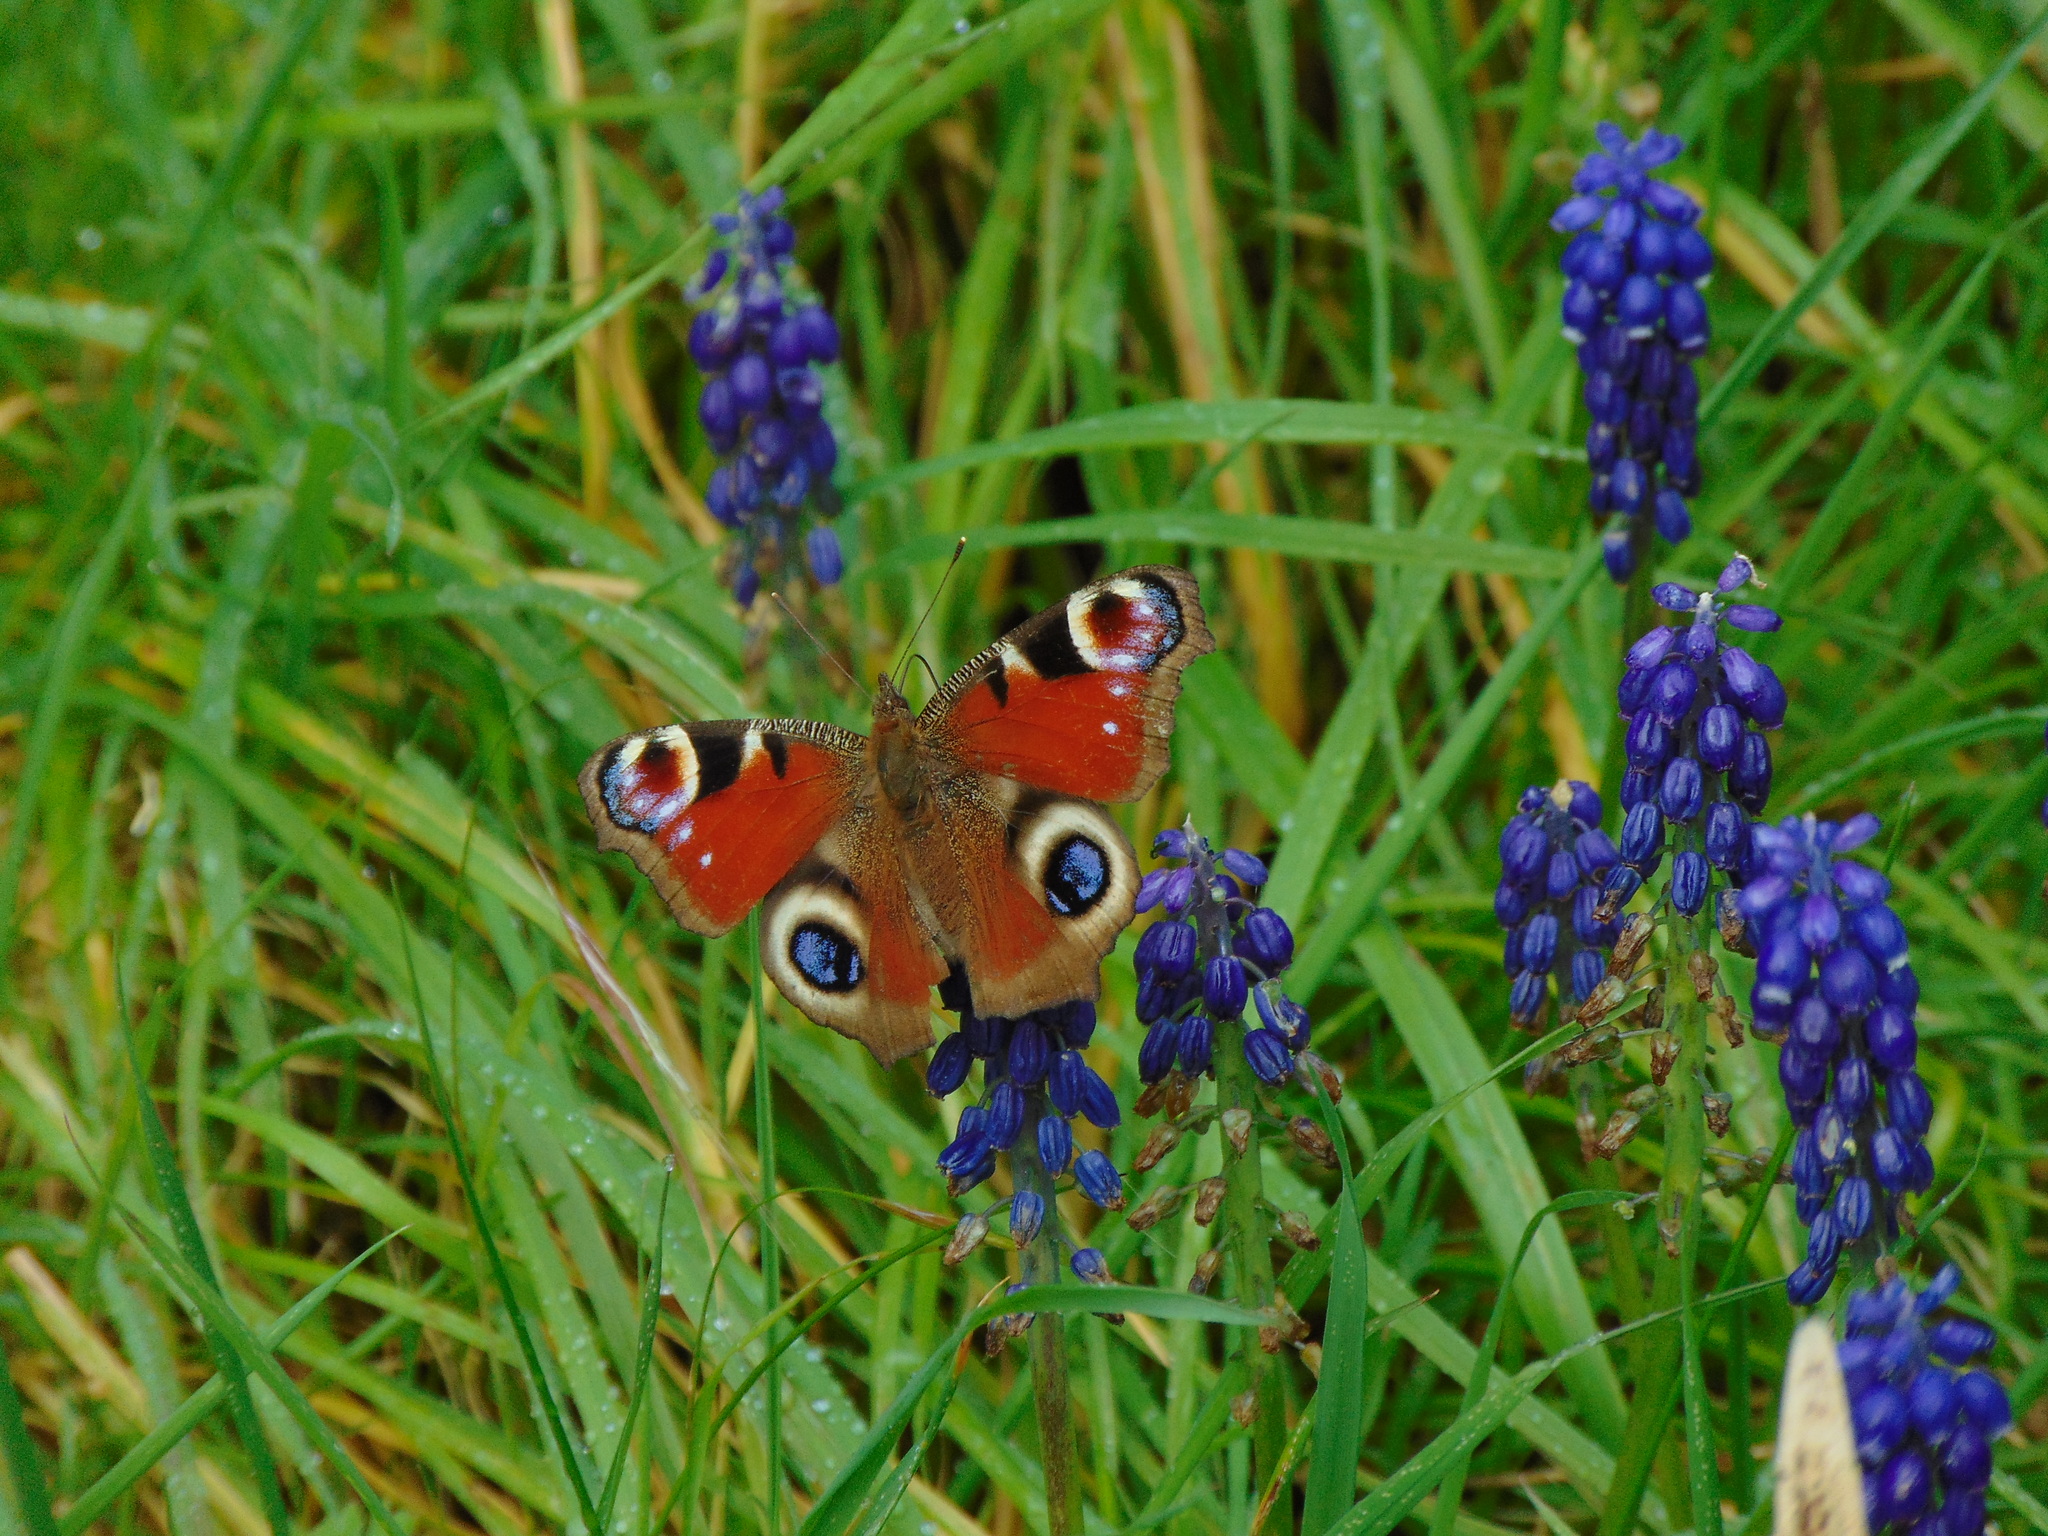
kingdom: Animalia
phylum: Arthropoda
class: Insecta
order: Lepidoptera
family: Nymphalidae
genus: Aglais
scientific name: Aglais io
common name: Peacock
